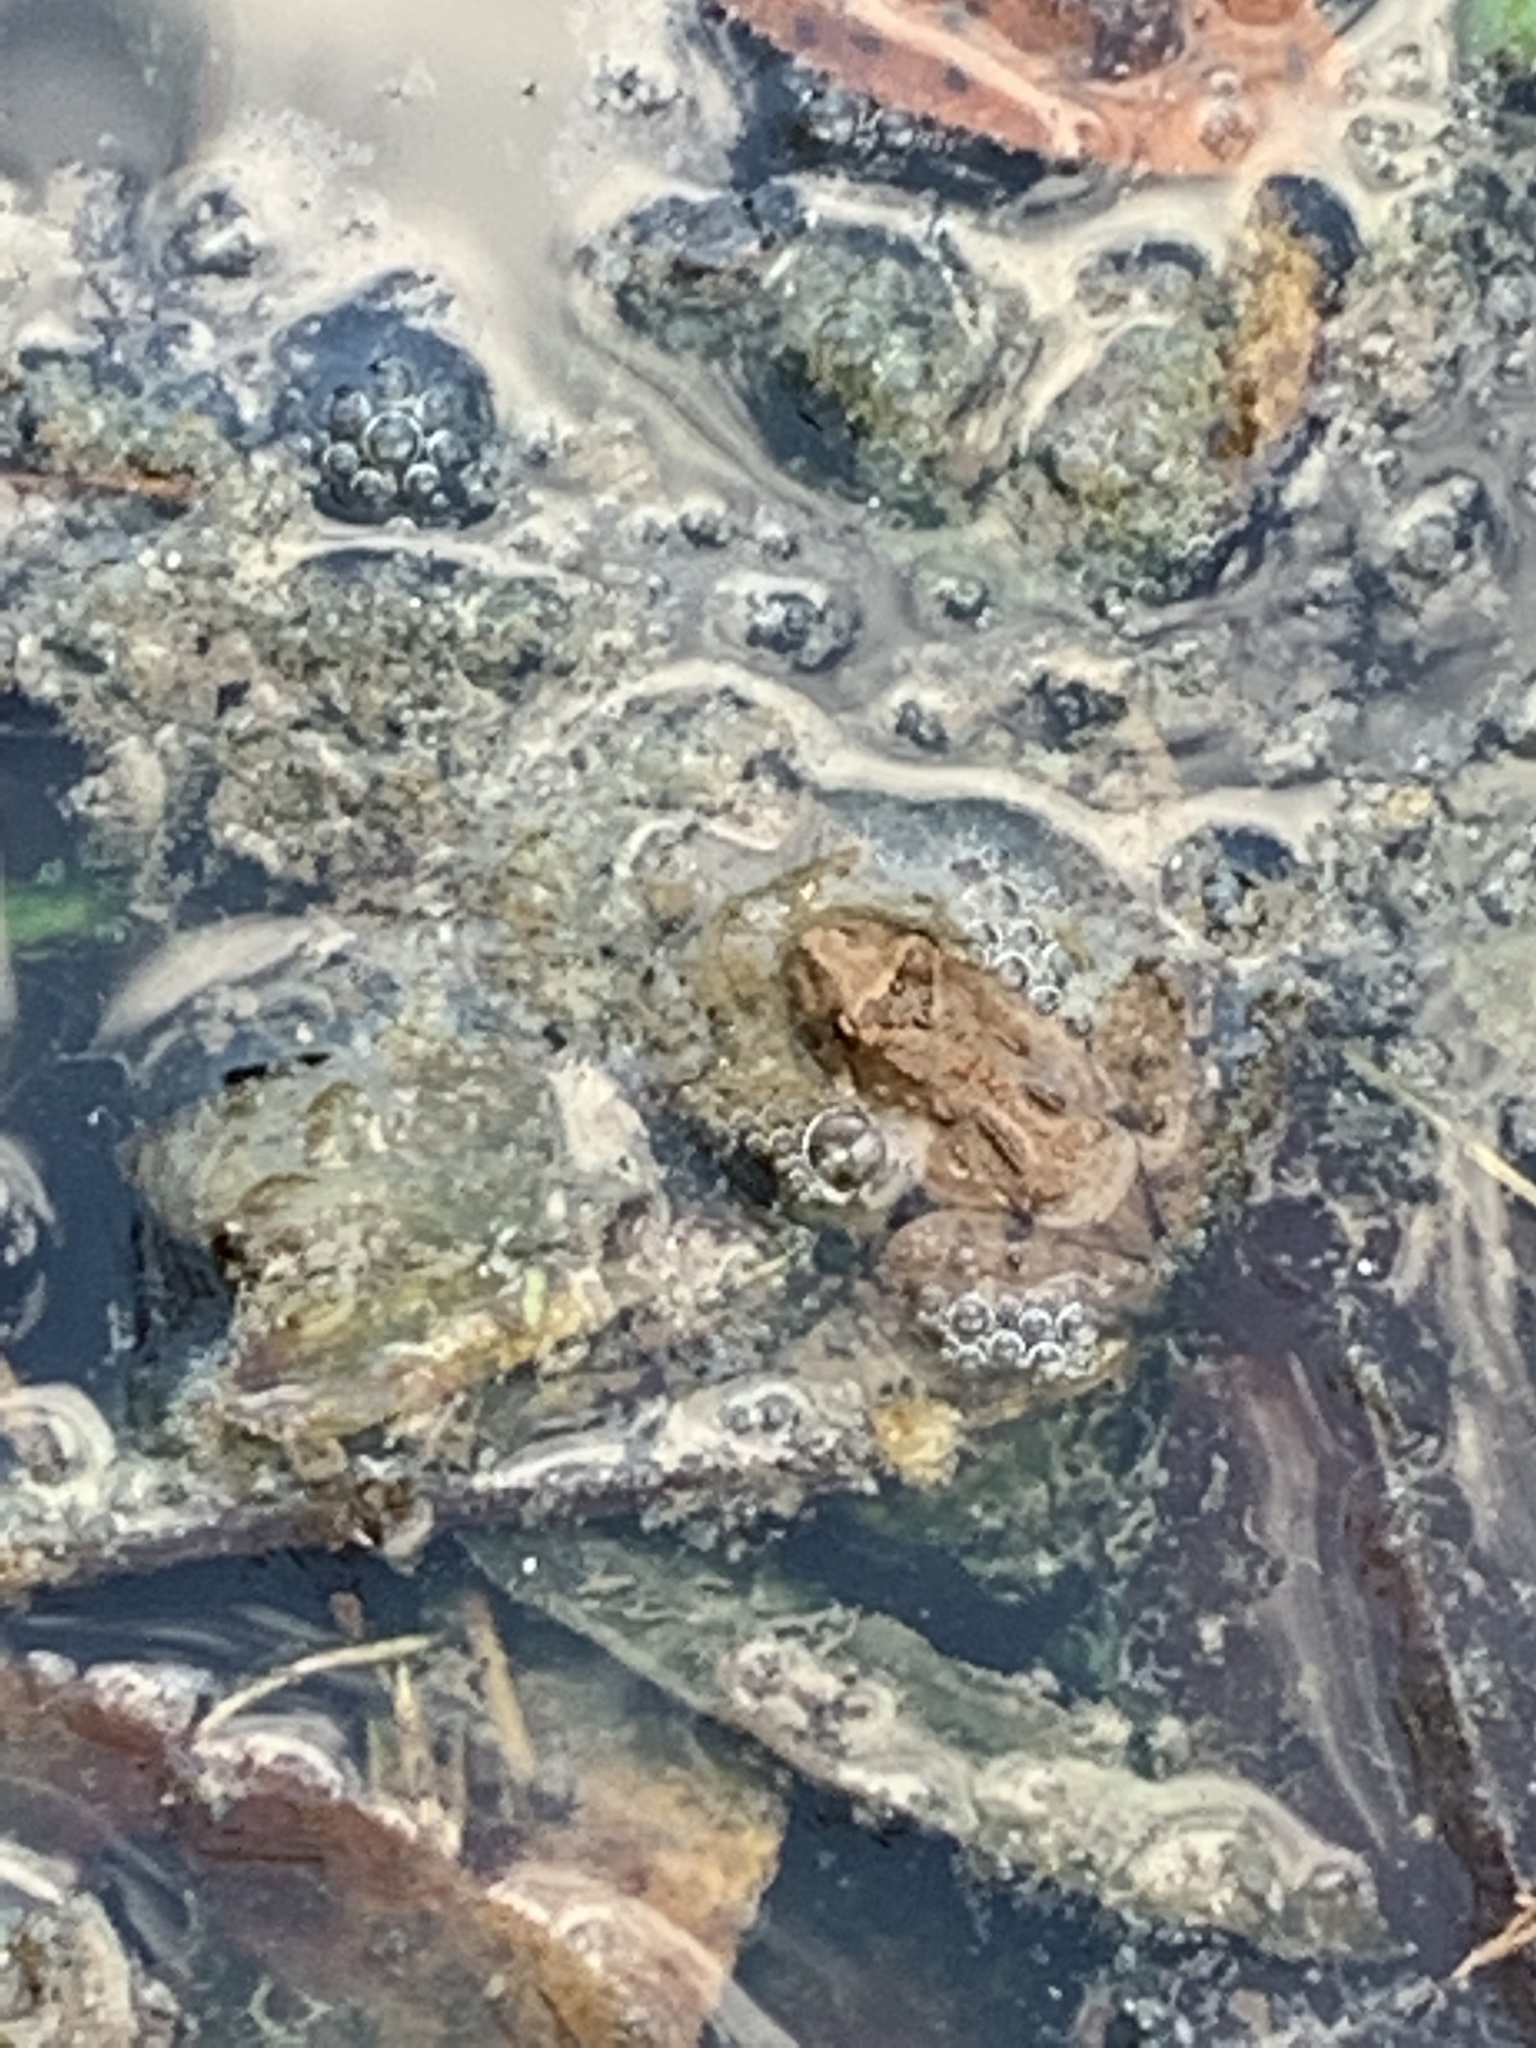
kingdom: Animalia
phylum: Chordata
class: Amphibia
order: Anura
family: Hylidae
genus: Acris
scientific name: Acris crepitans
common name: Northern cricket frog
